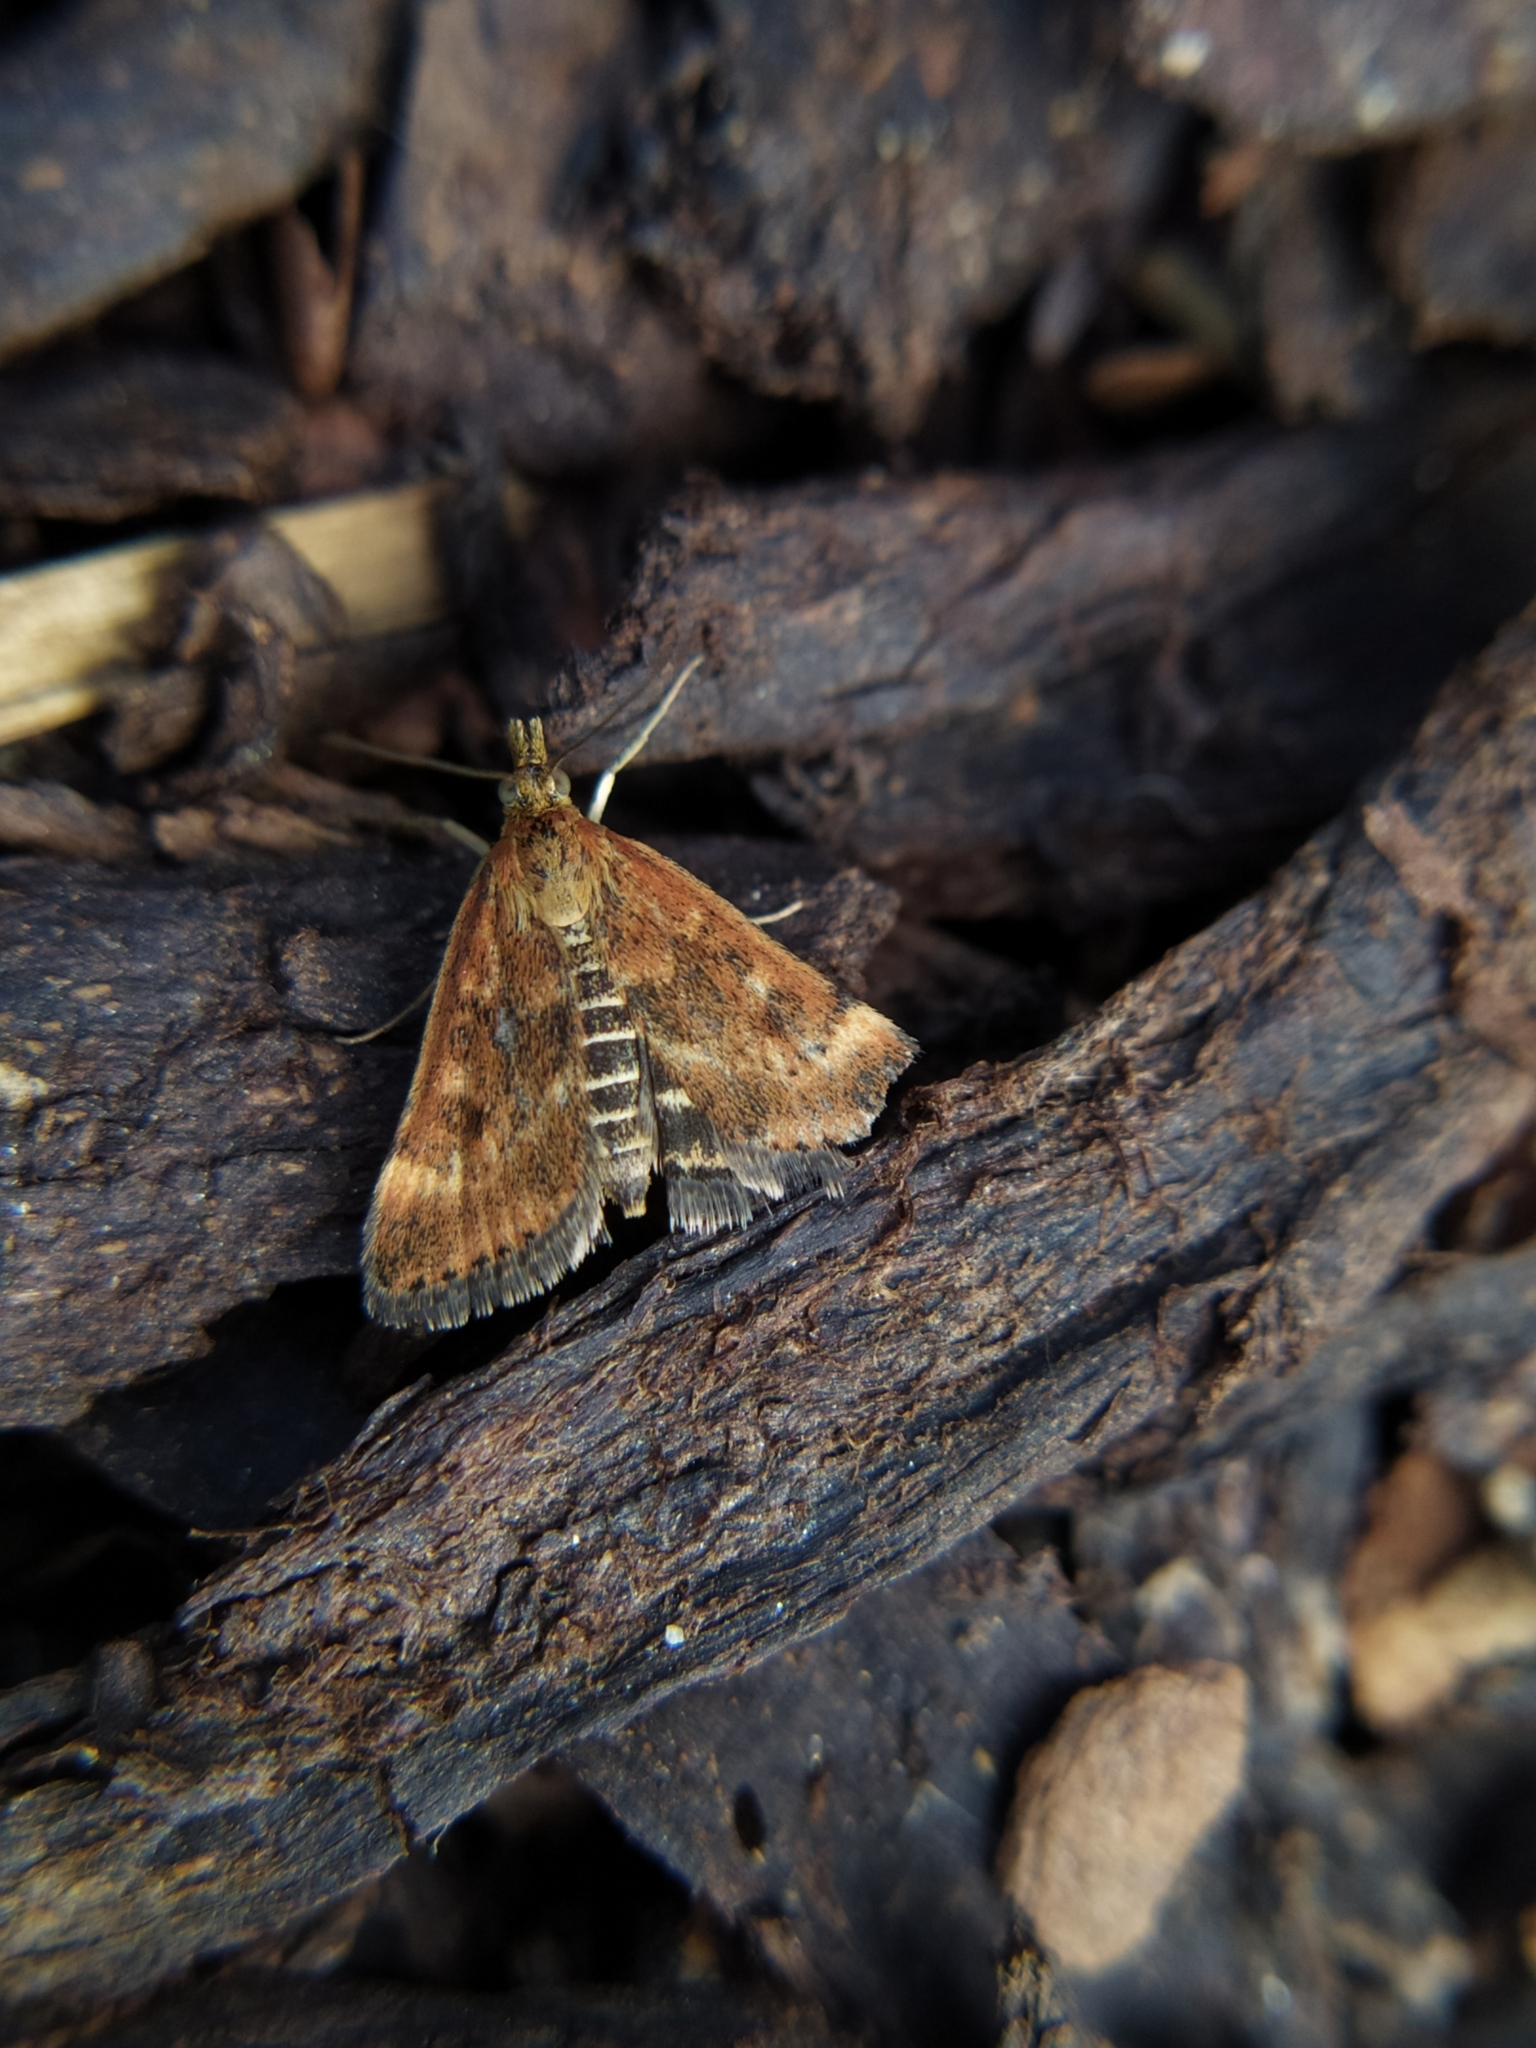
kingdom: Animalia
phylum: Arthropoda
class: Insecta
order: Lepidoptera
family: Crambidae
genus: Pyrausta
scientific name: Pyrausta despicata
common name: Straw-barred pearl
